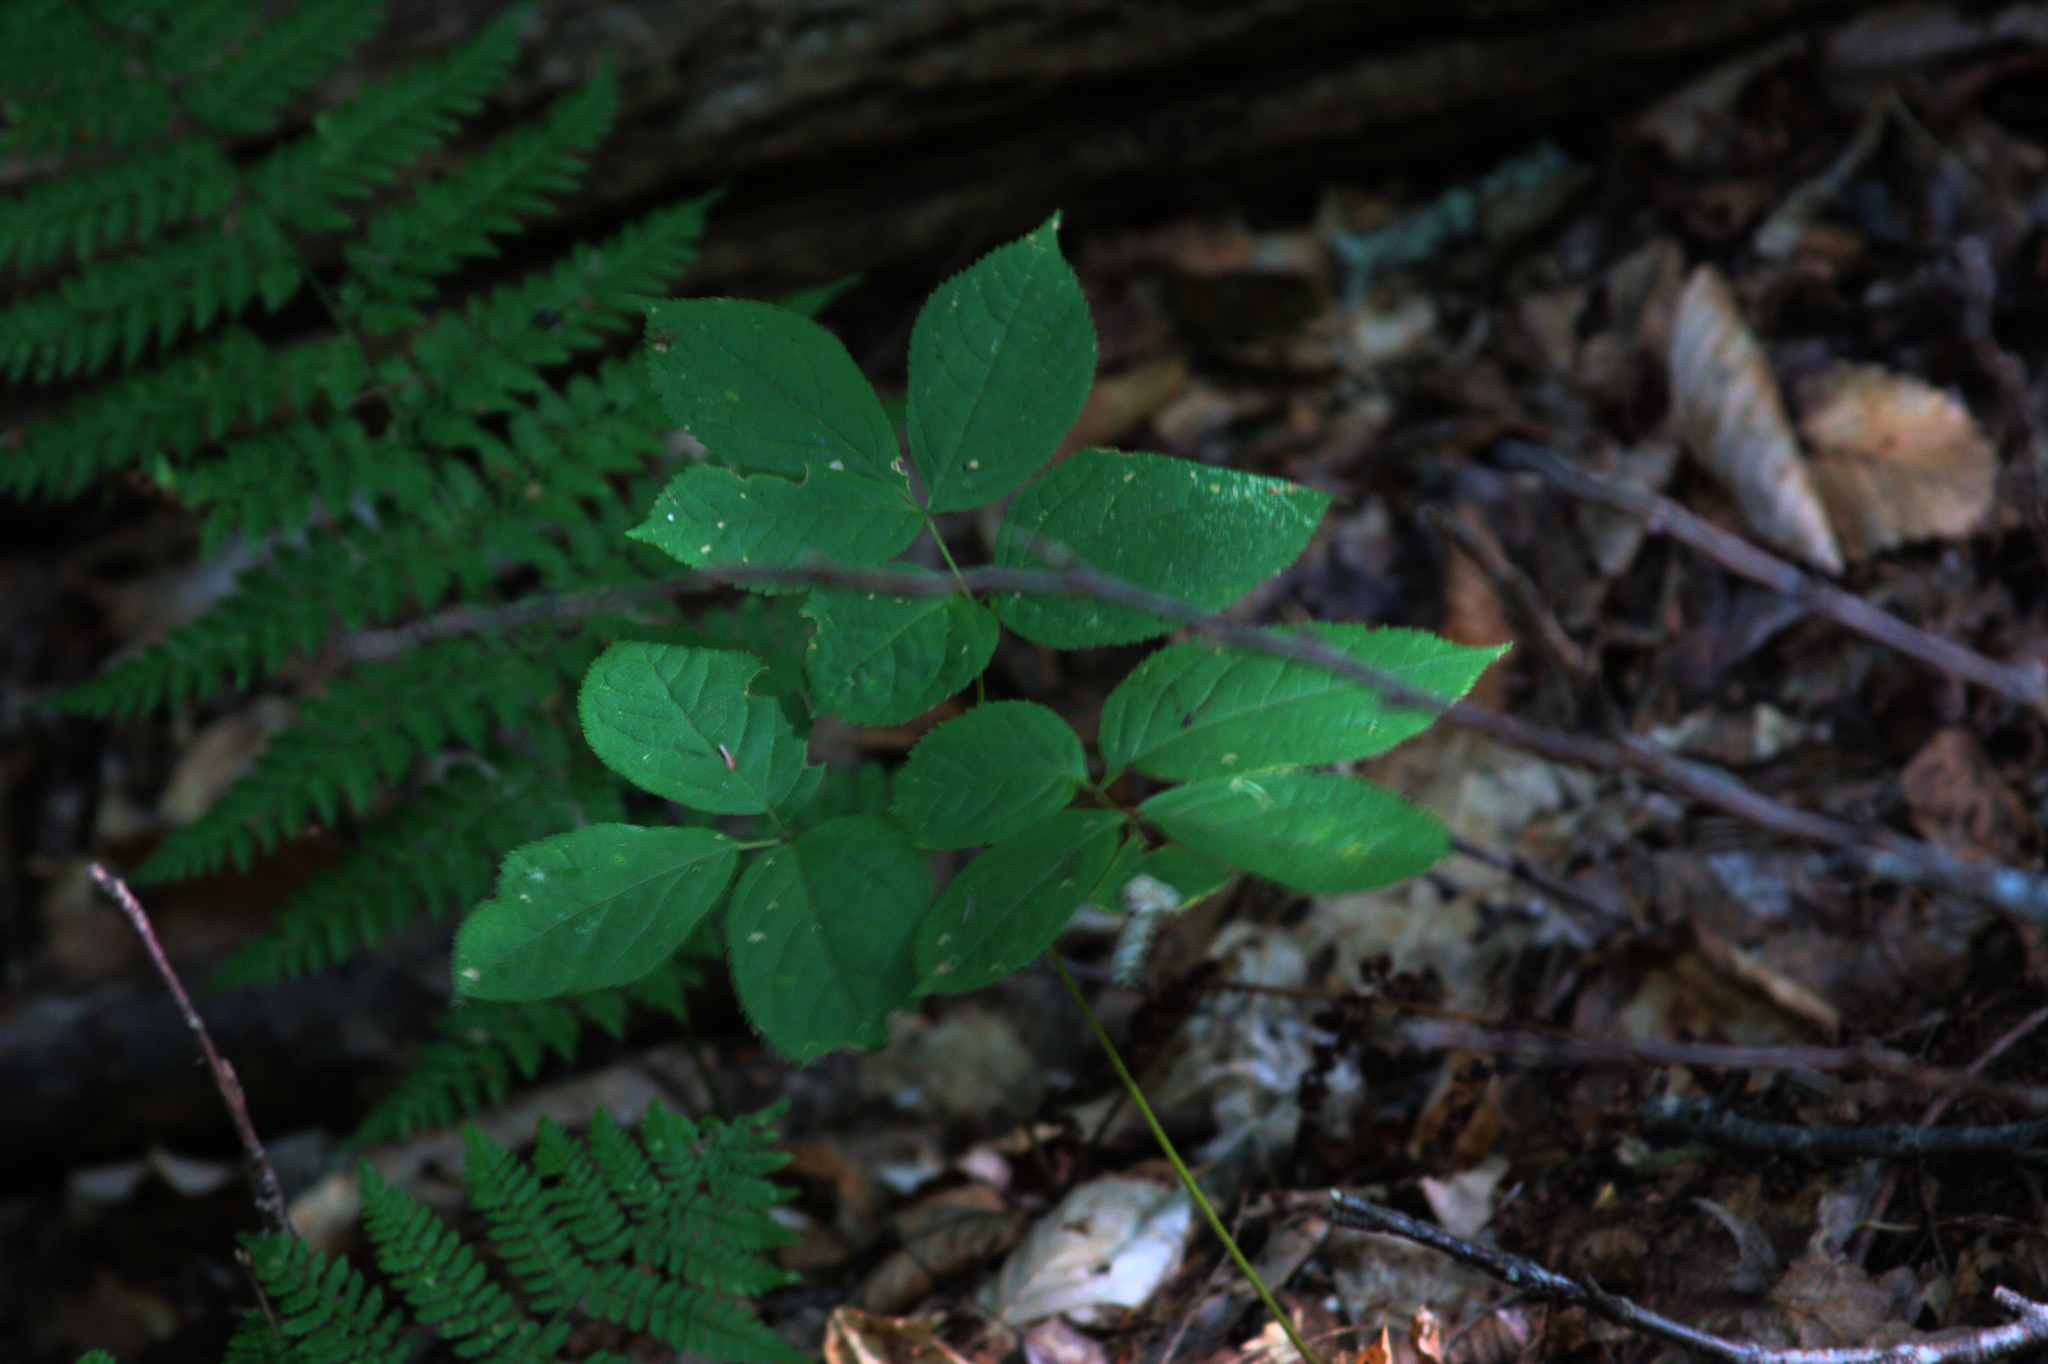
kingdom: Plantae
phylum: Tracheophyta
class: Magnoliopsida
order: Apiales
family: Araliaceae
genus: Aralia
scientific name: Aralia nudicaulis
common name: Wild sarsaparilla
